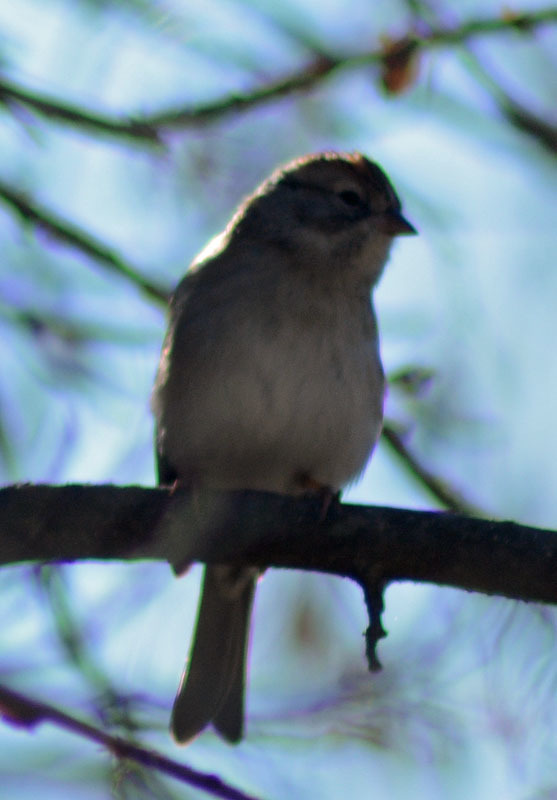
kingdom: Animalia
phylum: Chordata
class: Aves
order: Passeriformes
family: Passerellidae
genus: Spizella
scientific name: Spizella pallida
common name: Clay-colored sparrow
